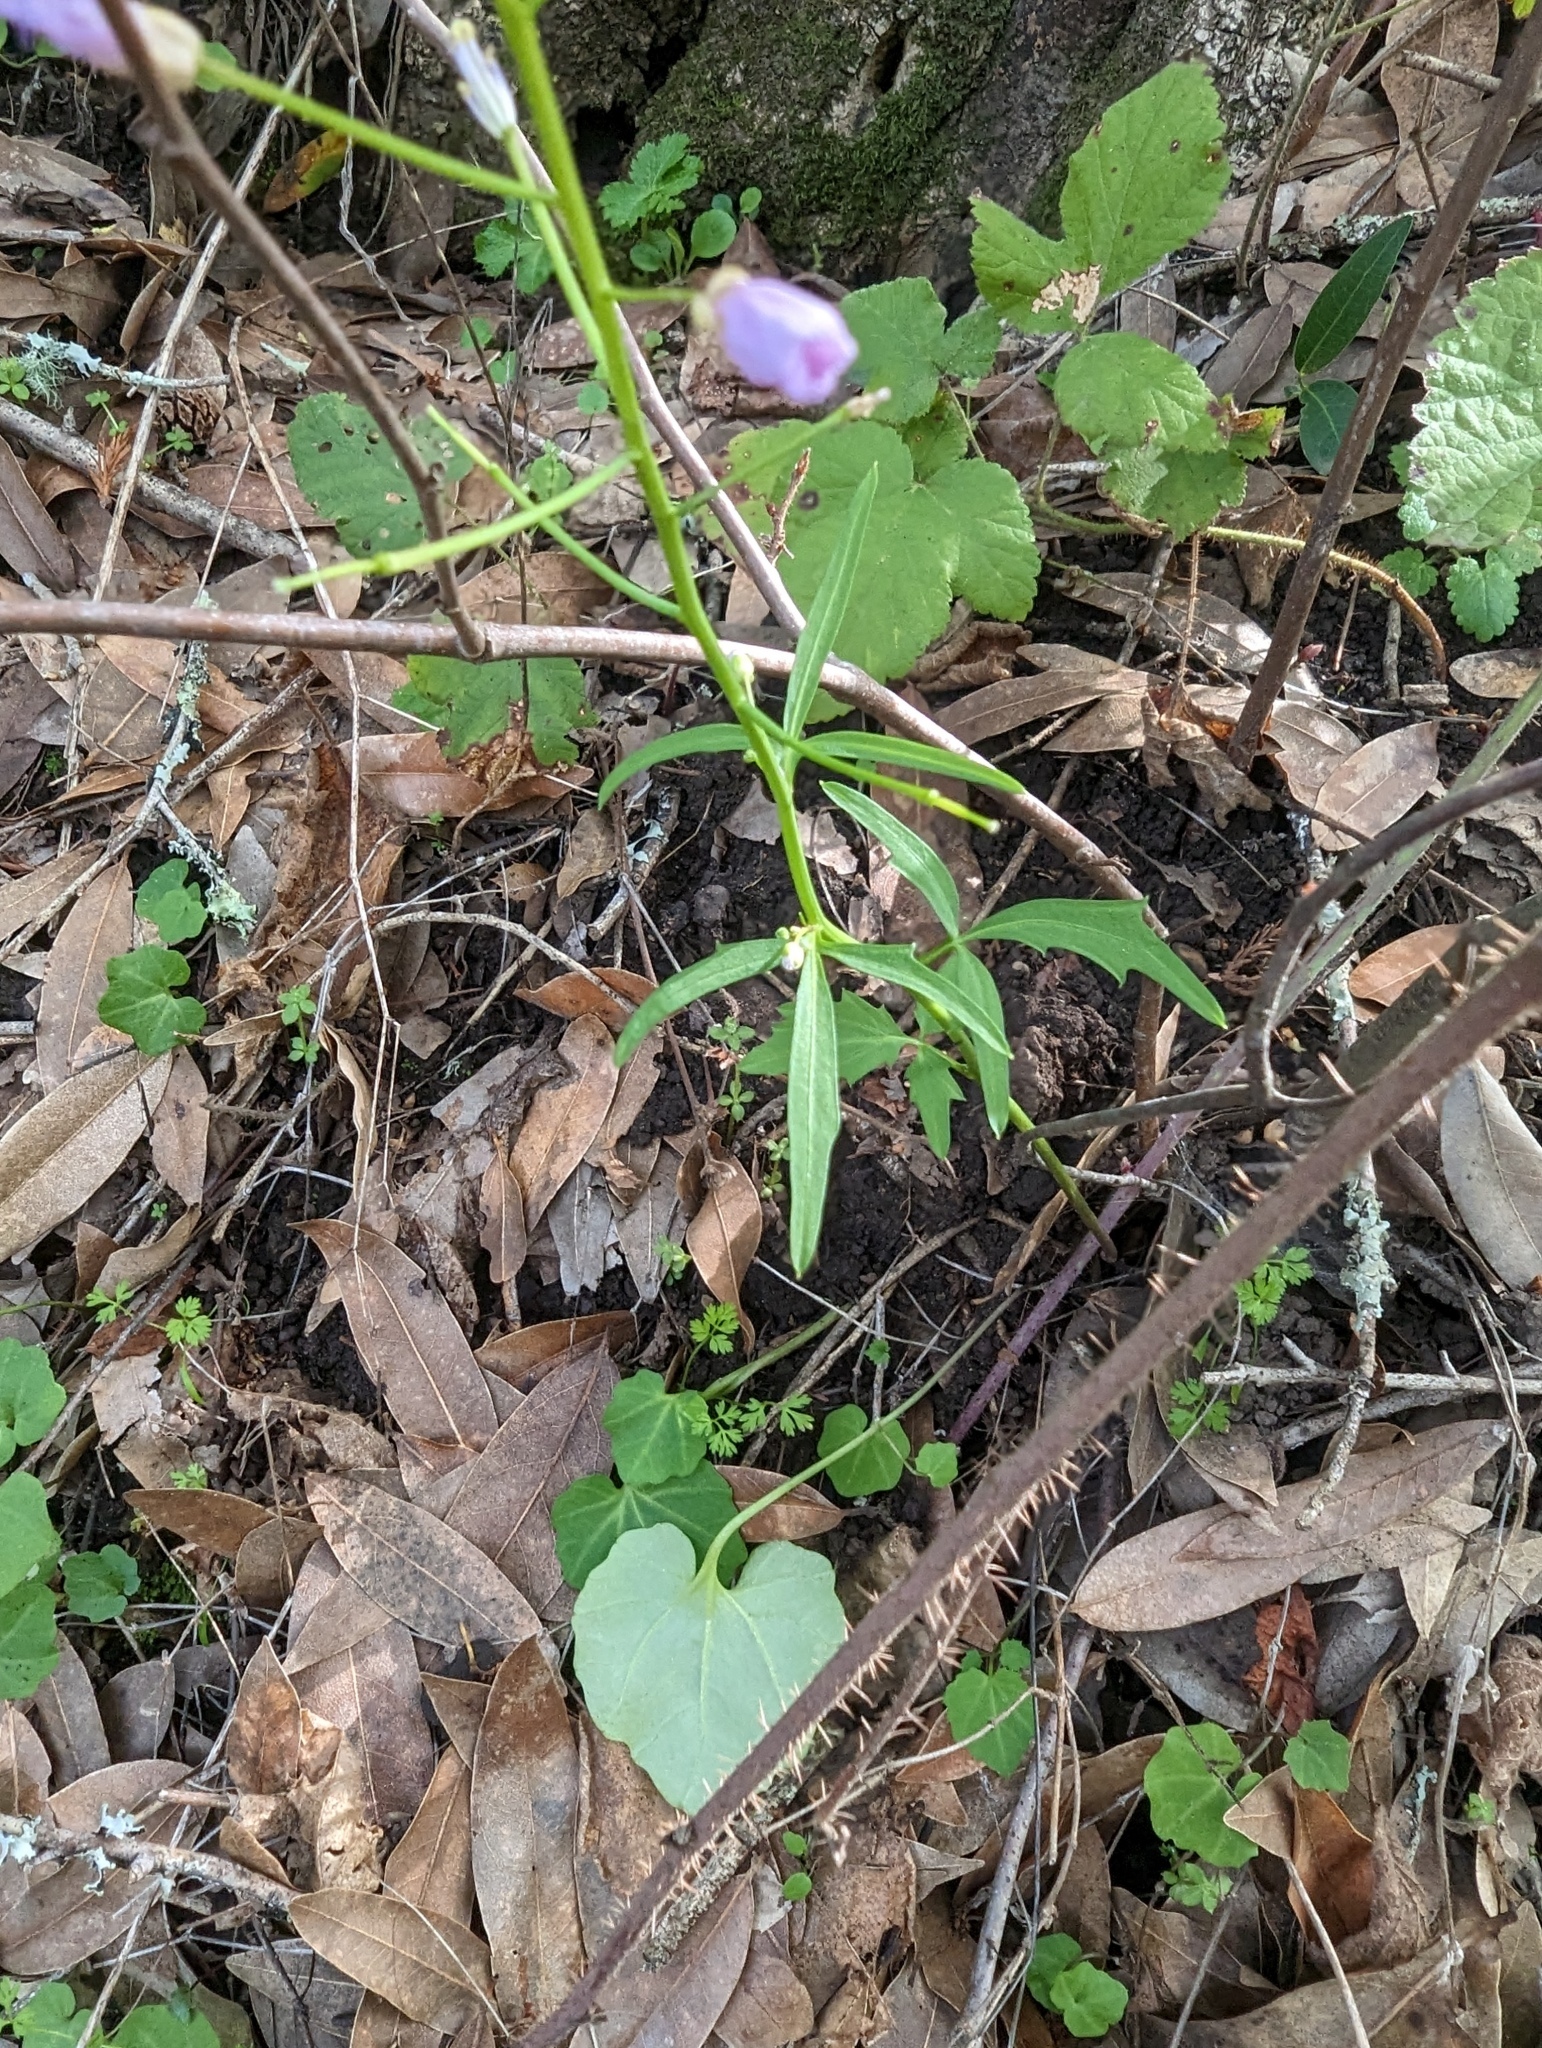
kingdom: Plantae
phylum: Tracheophyta
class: Magnoliopsida
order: Brassicales
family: Brassicaceae
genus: Cardamine
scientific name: Cardamine californica
